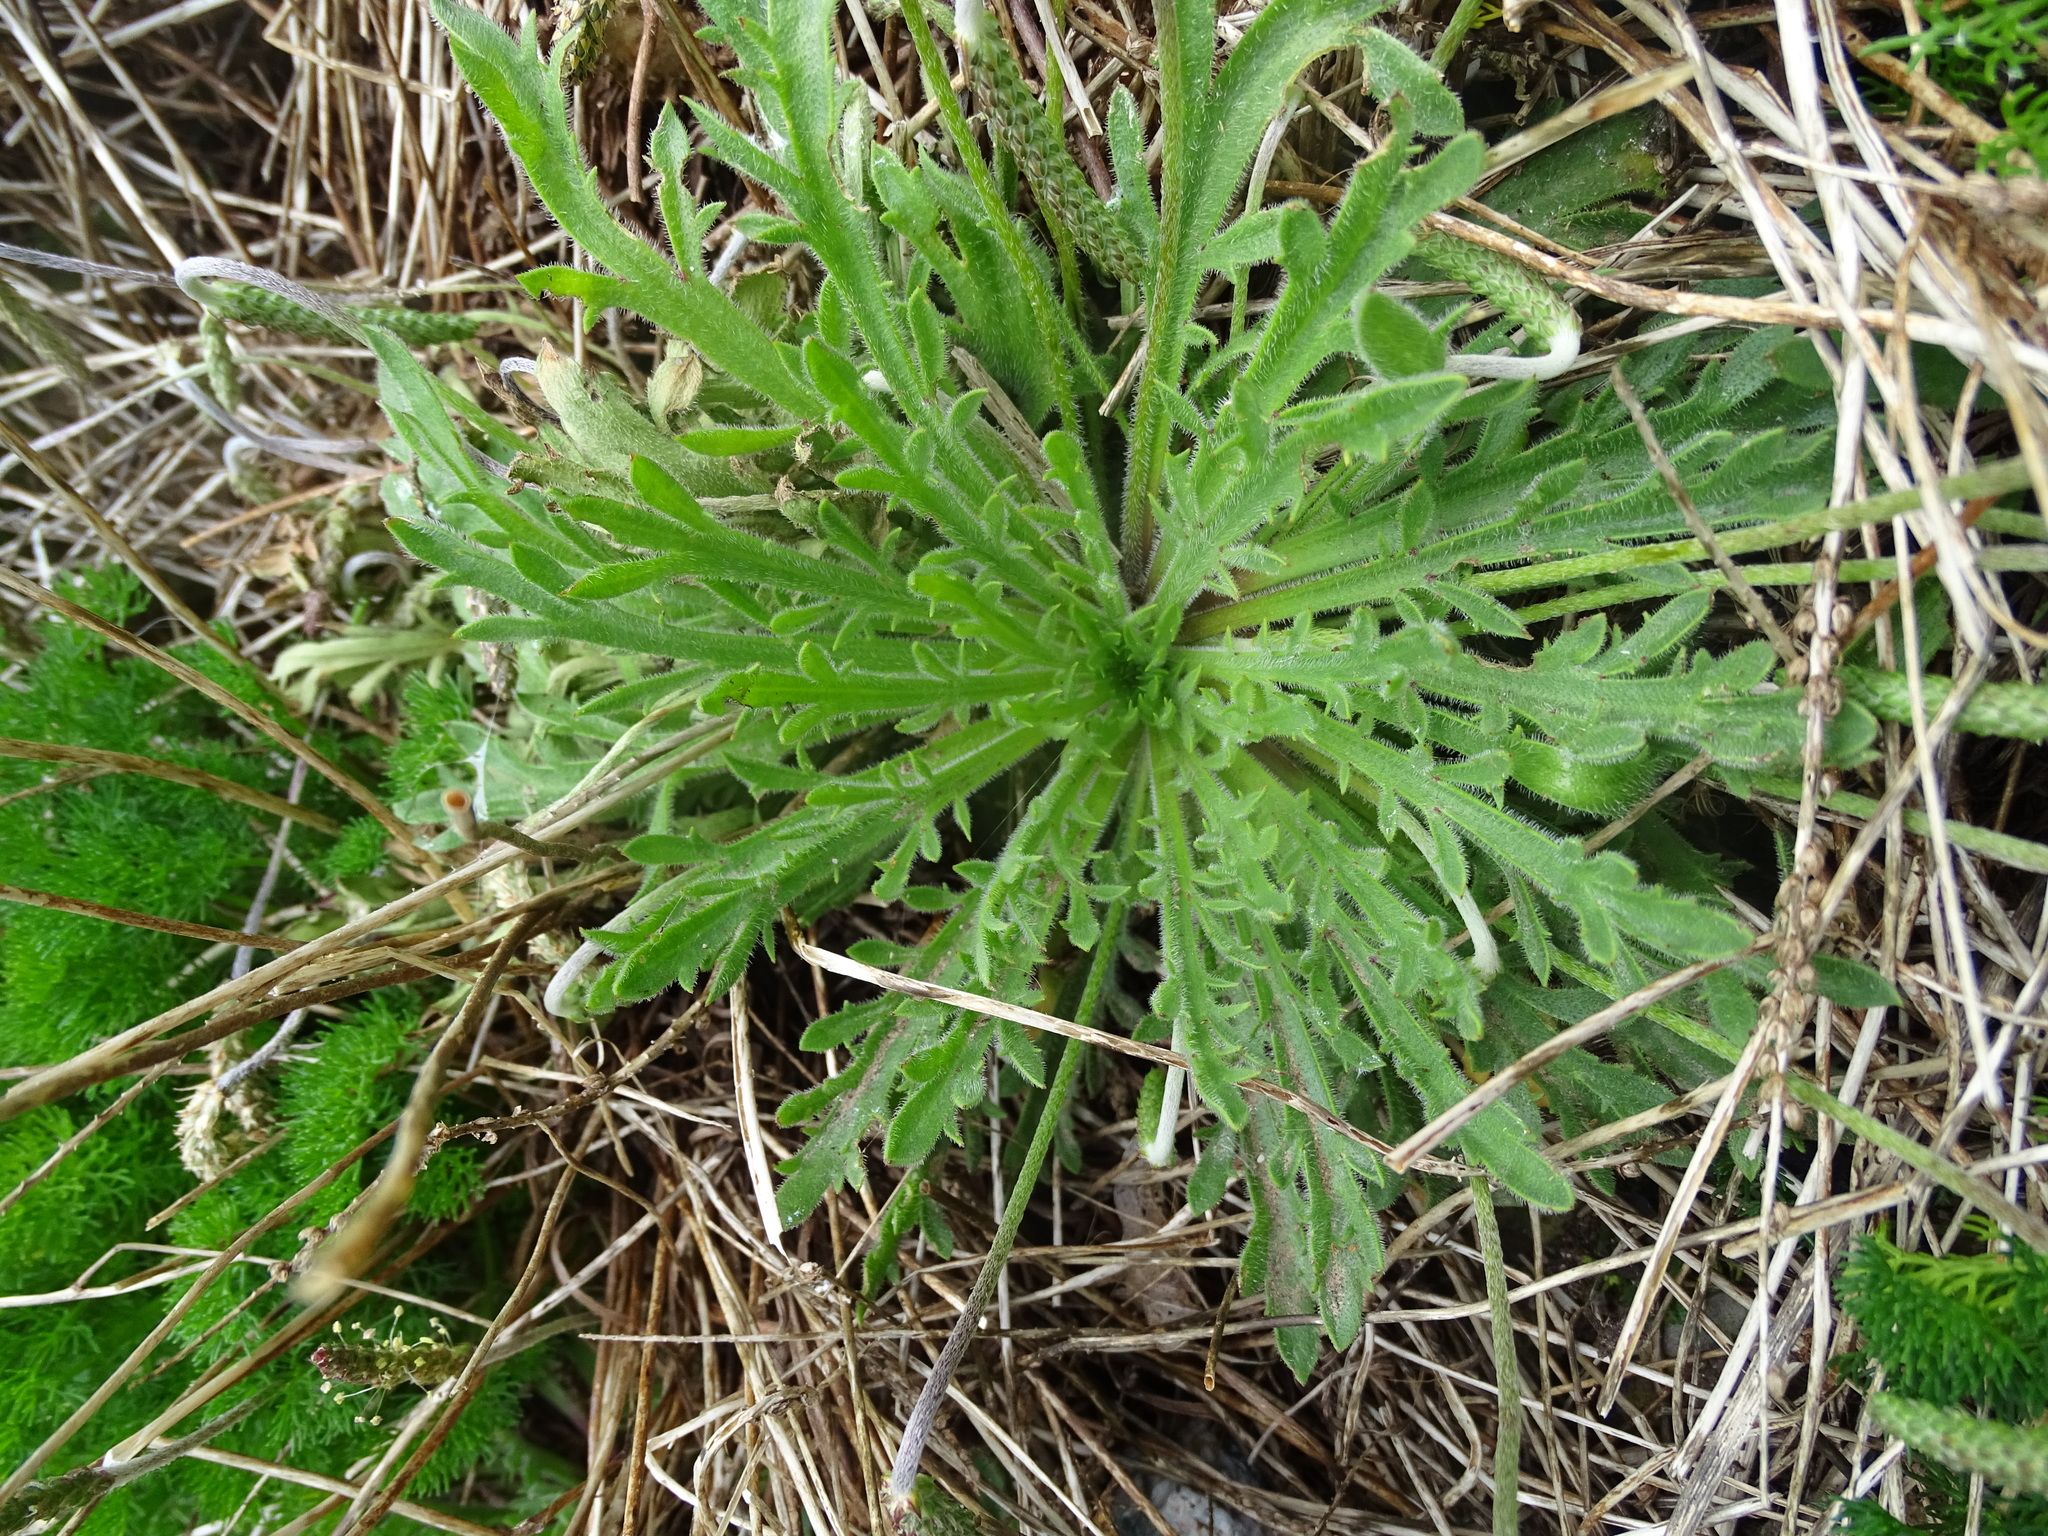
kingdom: Plantae
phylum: Tracheophyta
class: Magnoliopsida
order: Lamiales
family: Plantaginaceae
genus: Plantago
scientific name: Plantago coronopus
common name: Buck's-horn plantain
